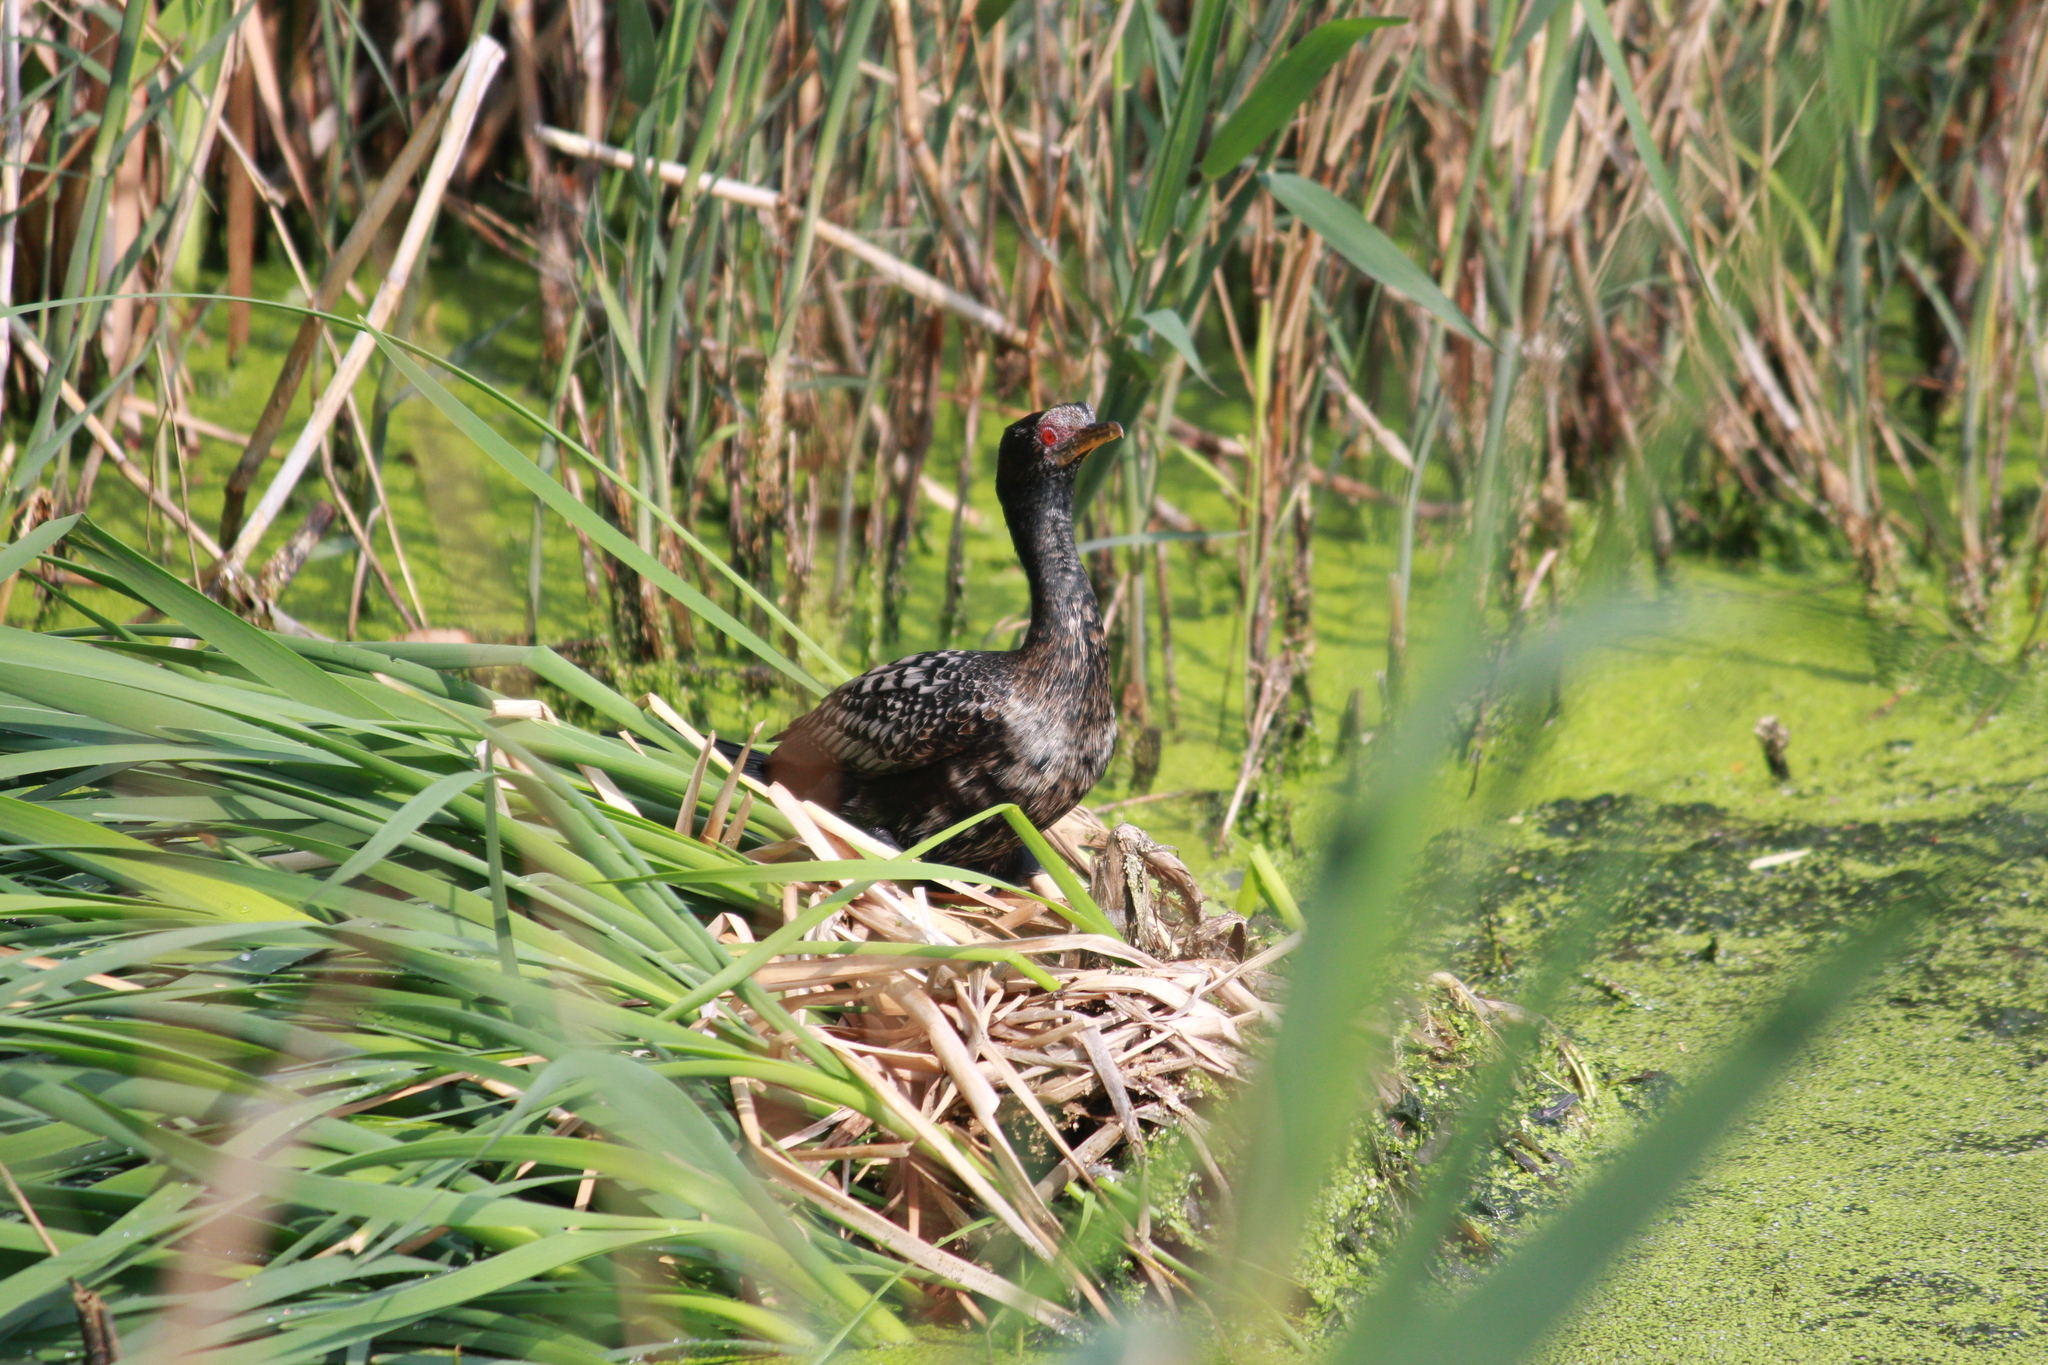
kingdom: Animalia
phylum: Chordata
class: Aves
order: Suliformes
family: Phalacrocoracidae
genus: Microcarbo
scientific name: Microcarbo africanus
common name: Long-tailed cormorant
